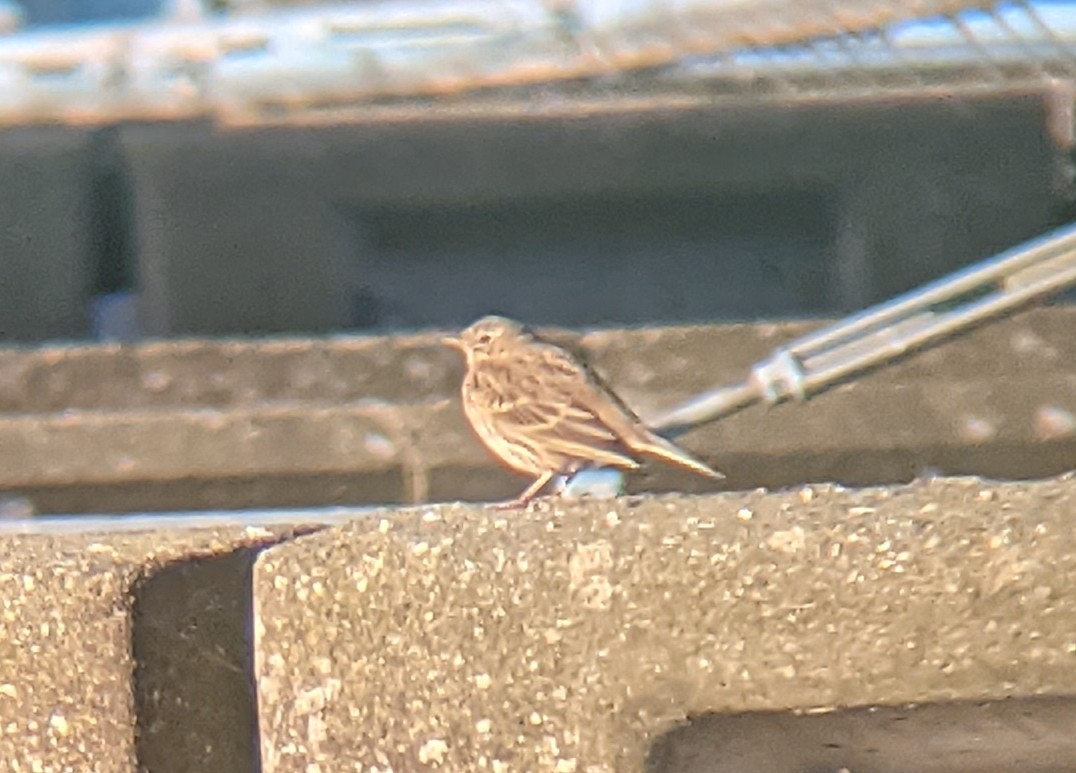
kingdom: Animalia
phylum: Chordata
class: Aves
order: Passeriformes
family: Motacillidae
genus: Anthus
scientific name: Anthus pratensis
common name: Meadow pipit
